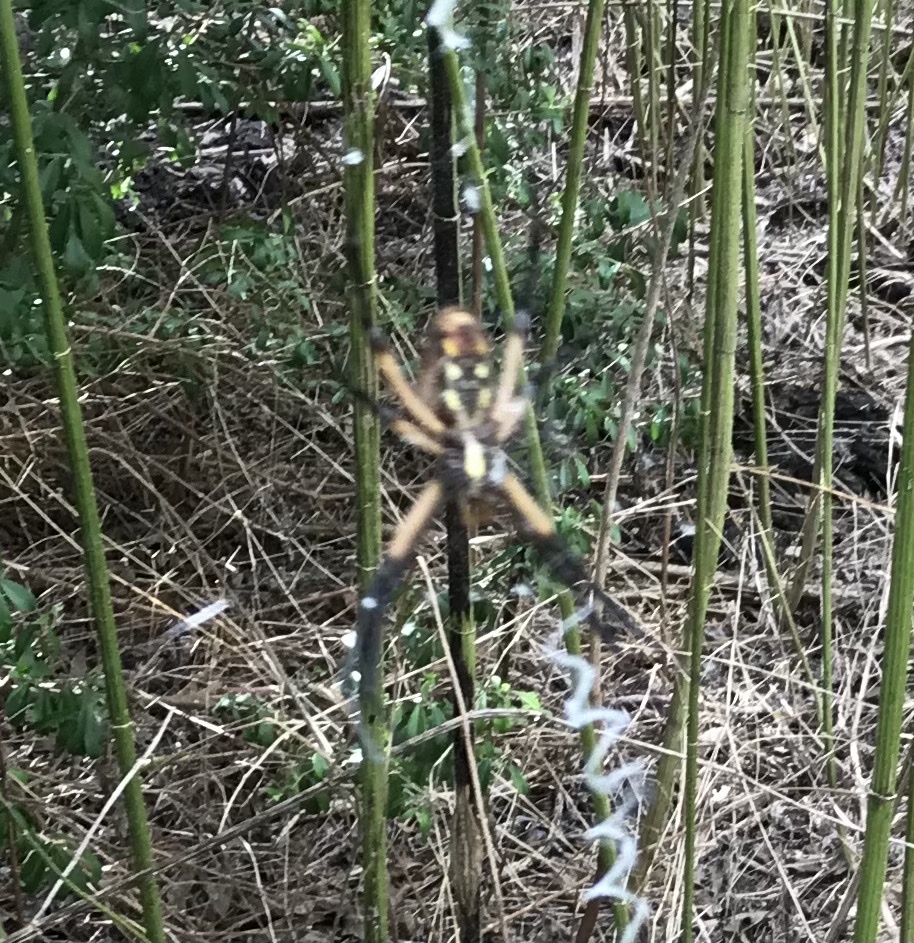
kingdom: Animalia
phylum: Arthropoda
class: Arachnida
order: Araneae
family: Araneidae
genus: Argiope
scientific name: Argiope aurantia
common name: Orb weavers
